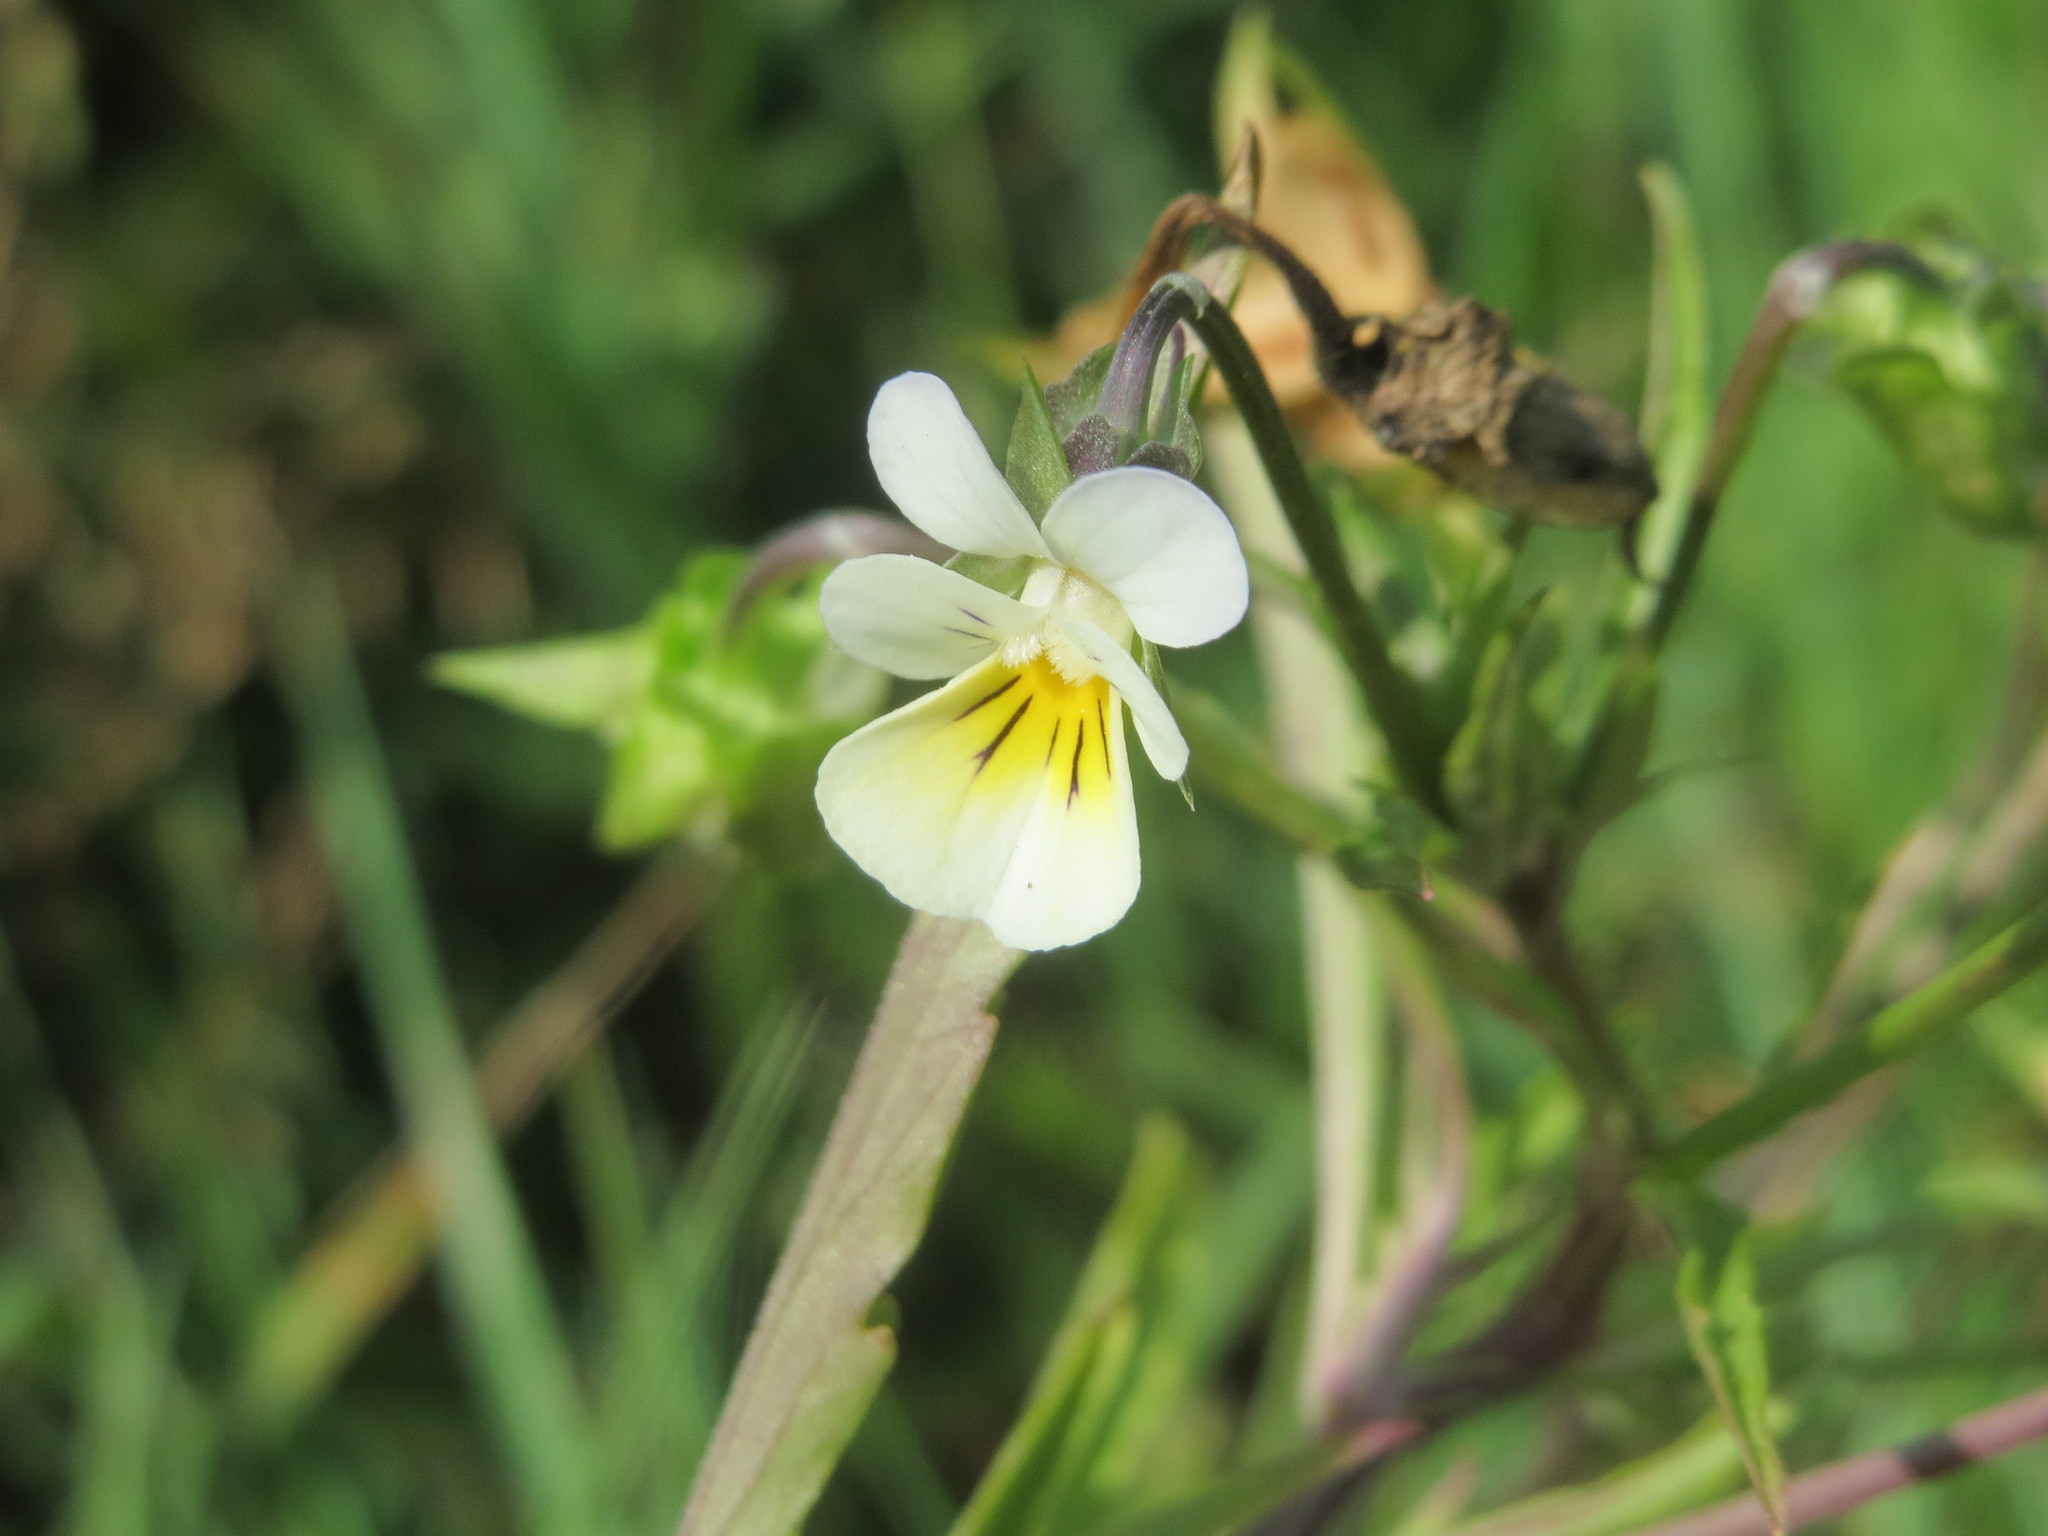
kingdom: Plantae
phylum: Tracheophyta
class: Magnoliopsida
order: Malpighiales
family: Violaceae
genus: Viola
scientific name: Viola arvensis
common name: Field pansy
